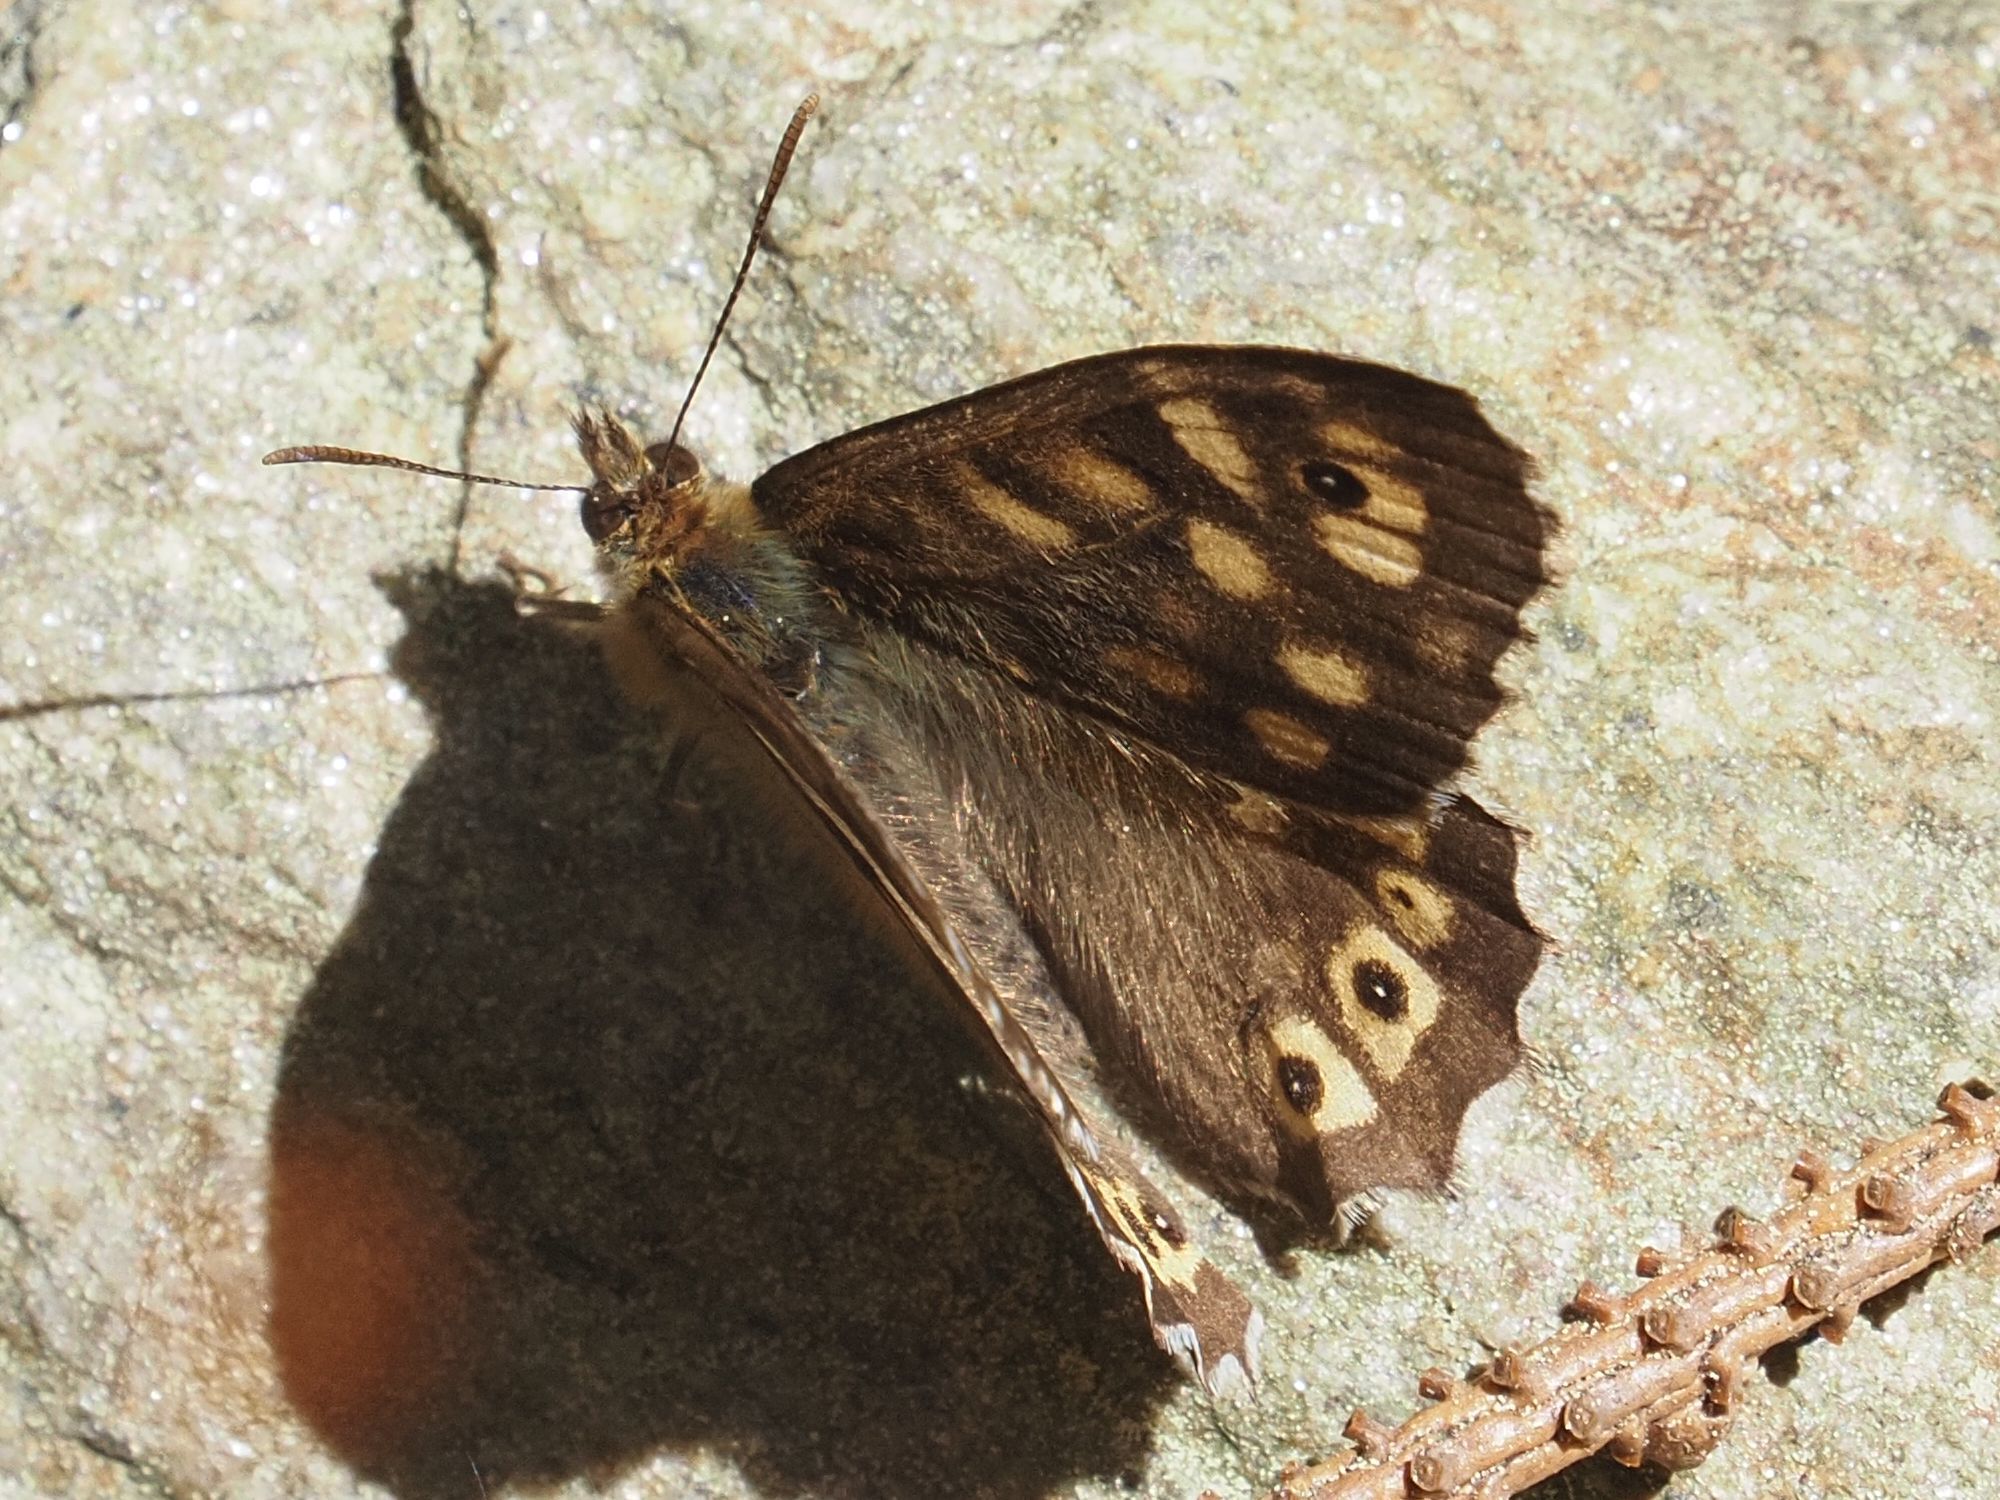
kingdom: Animalia
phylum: Arthropoda
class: Insecta
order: Lepidoptera
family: Nymphalidae
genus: Pararge
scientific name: Pararge aegeria
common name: Speckled wood
